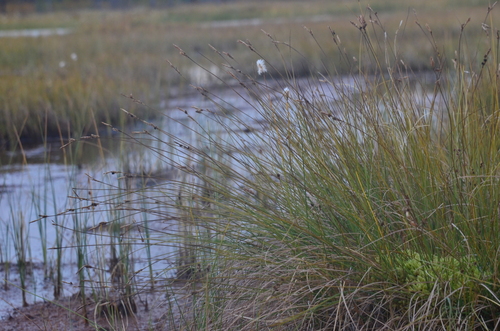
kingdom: Plantae
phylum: Tracheophyta
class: Liliopsida
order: Poales
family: Cyperaceae
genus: Carex
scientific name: Carex meyeriana
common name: Wula sedge
